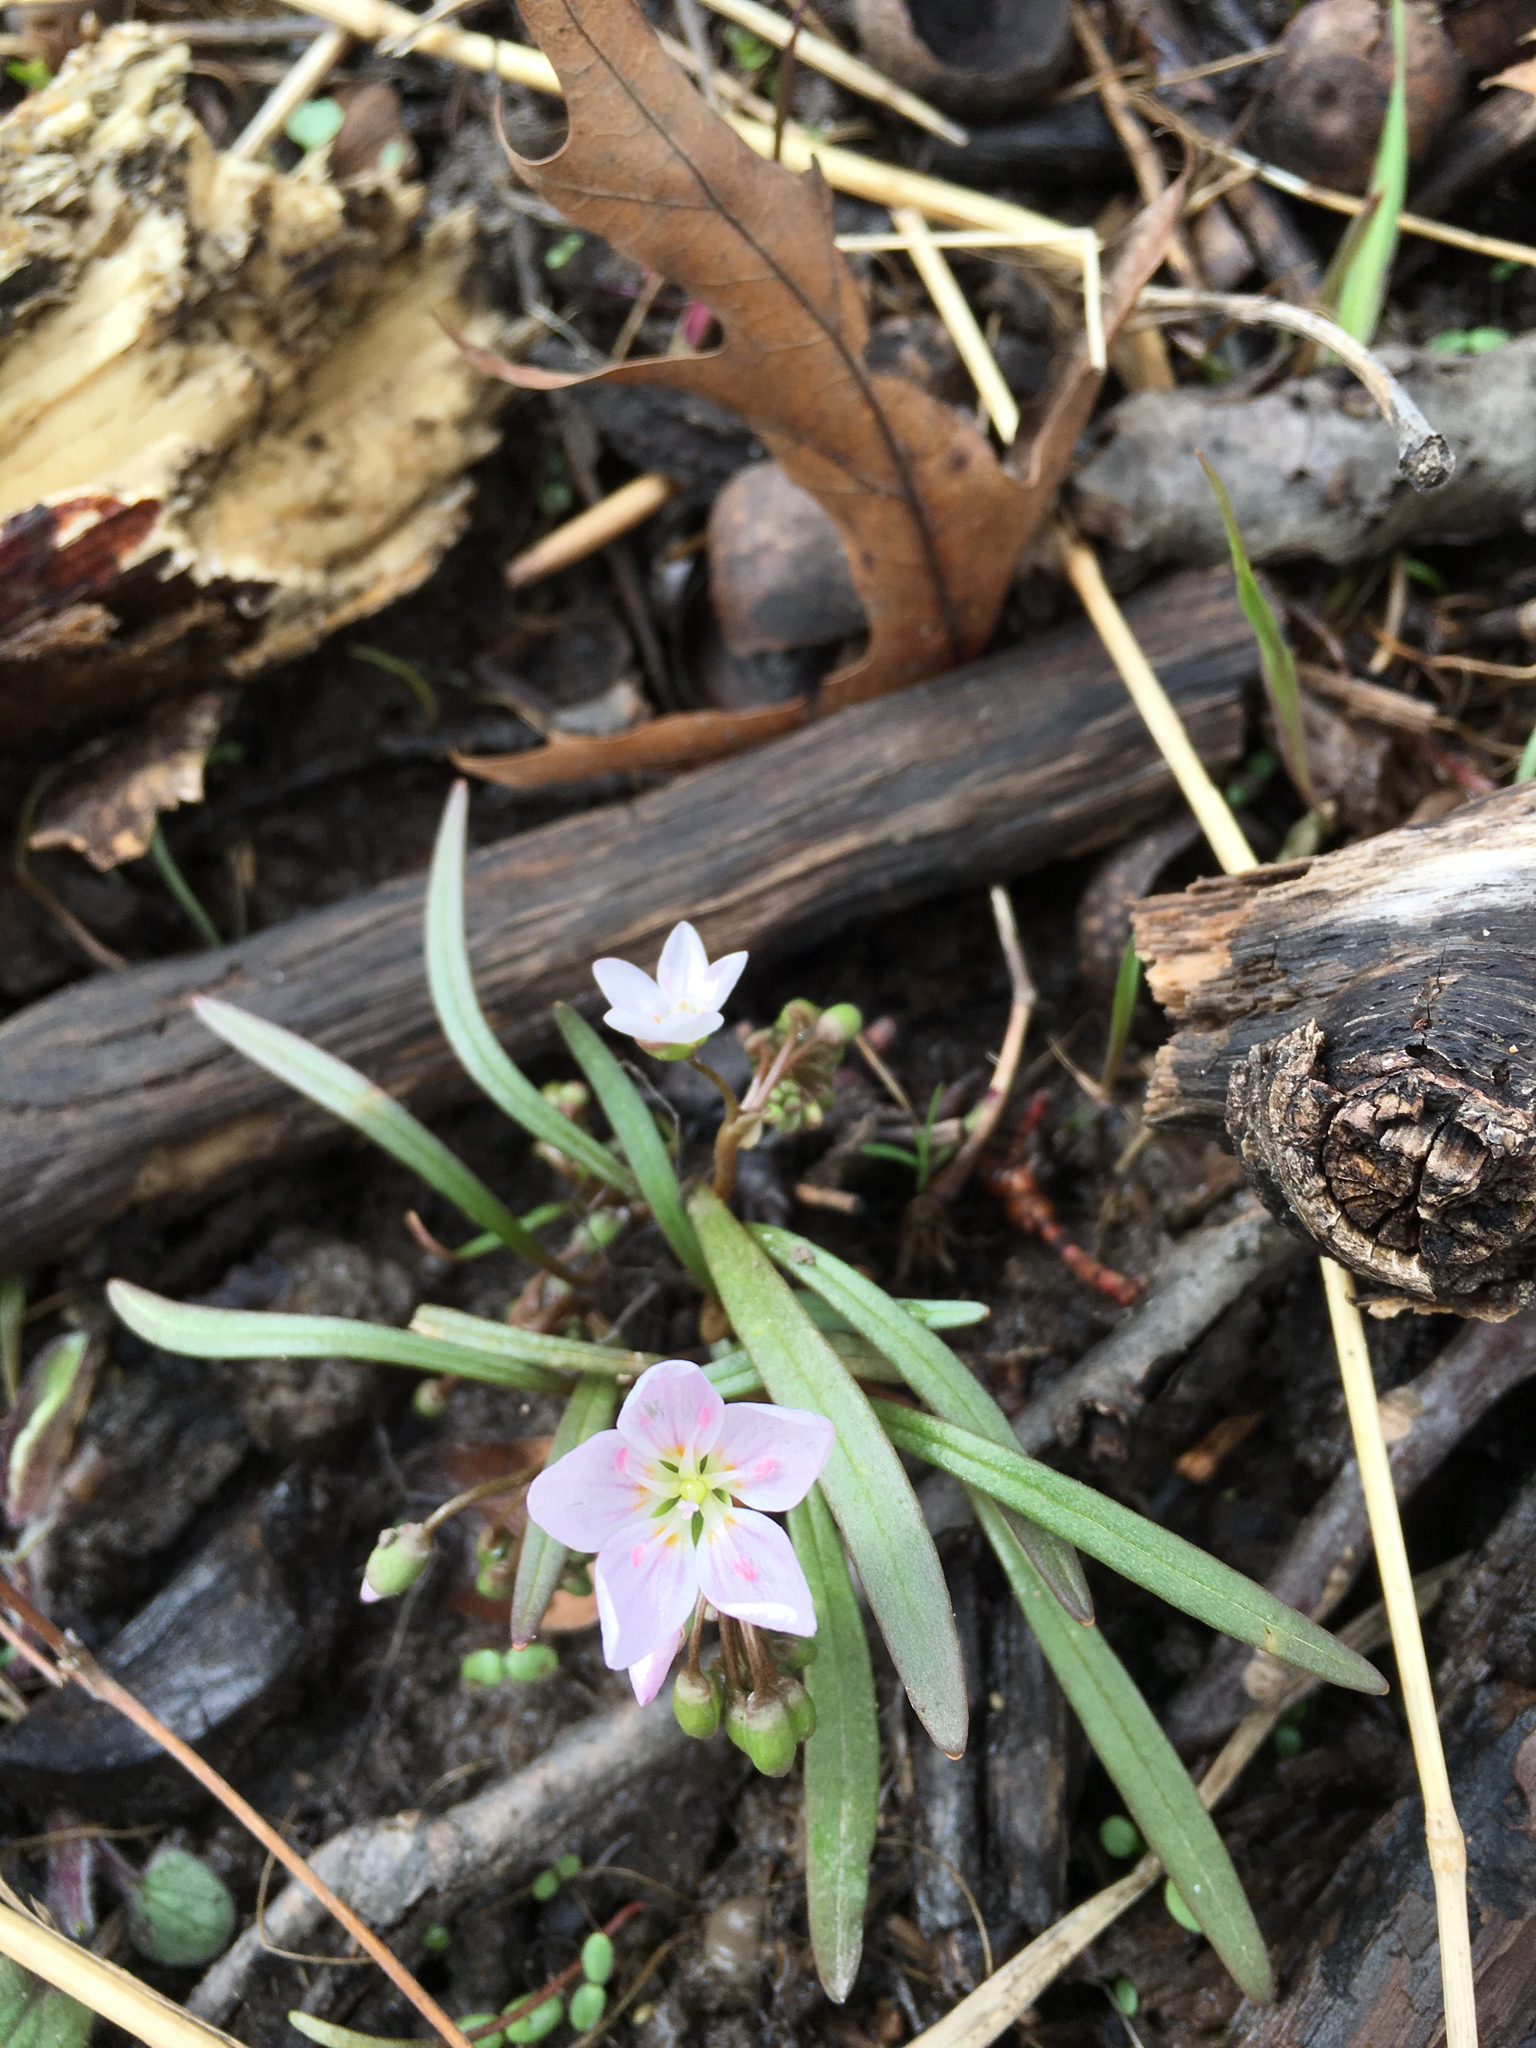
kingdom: Plantae
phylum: Tracheophyta
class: Magnoliopsida
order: Caryophyllales
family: Montiaceae
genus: Claytonia
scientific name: Claytonia virginica
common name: Virginia springbeauty
